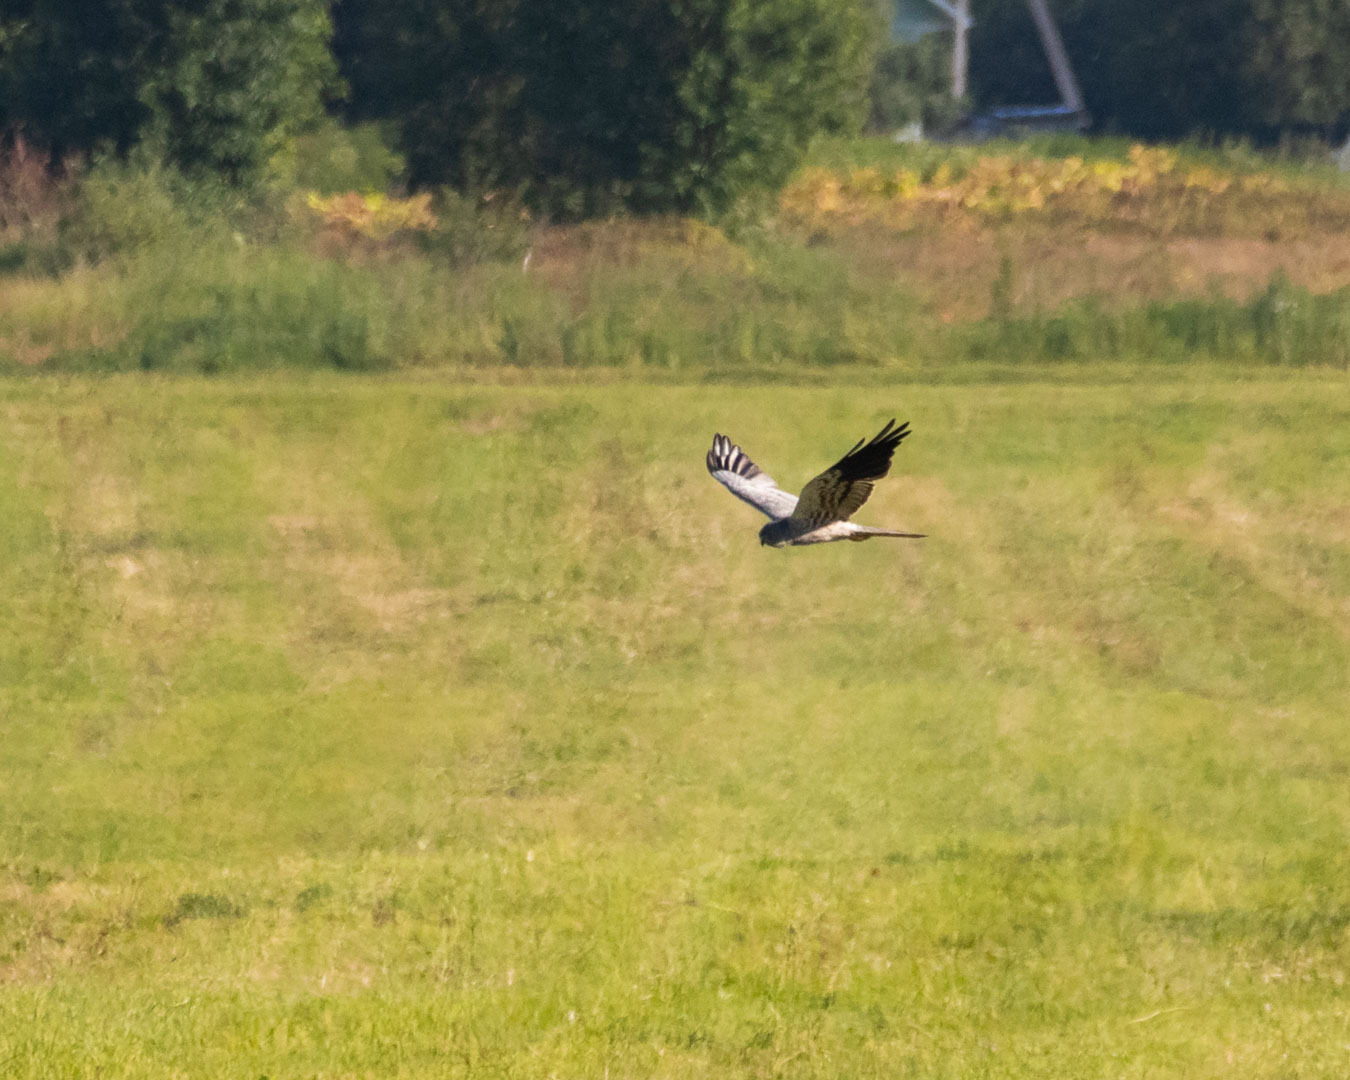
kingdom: Animalia
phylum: Chordata
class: Aves
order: Accipitriformes
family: Accipitridae
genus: Circus
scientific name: Circus pygargus
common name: Montagu's harrier
